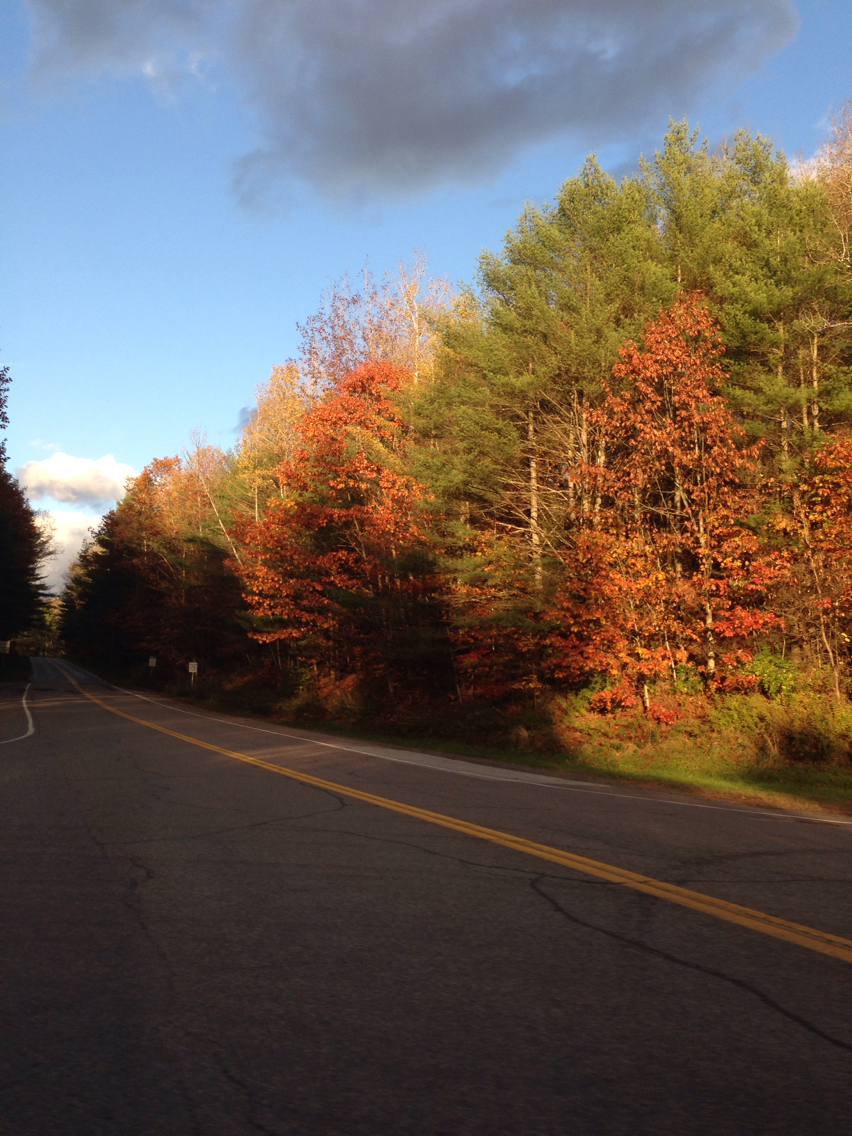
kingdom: Plantae
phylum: Tracheophyta
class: Magnoliopsida
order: Fagales
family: Fagaceae
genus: Quercus
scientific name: Quercus rubra
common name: Red oak
